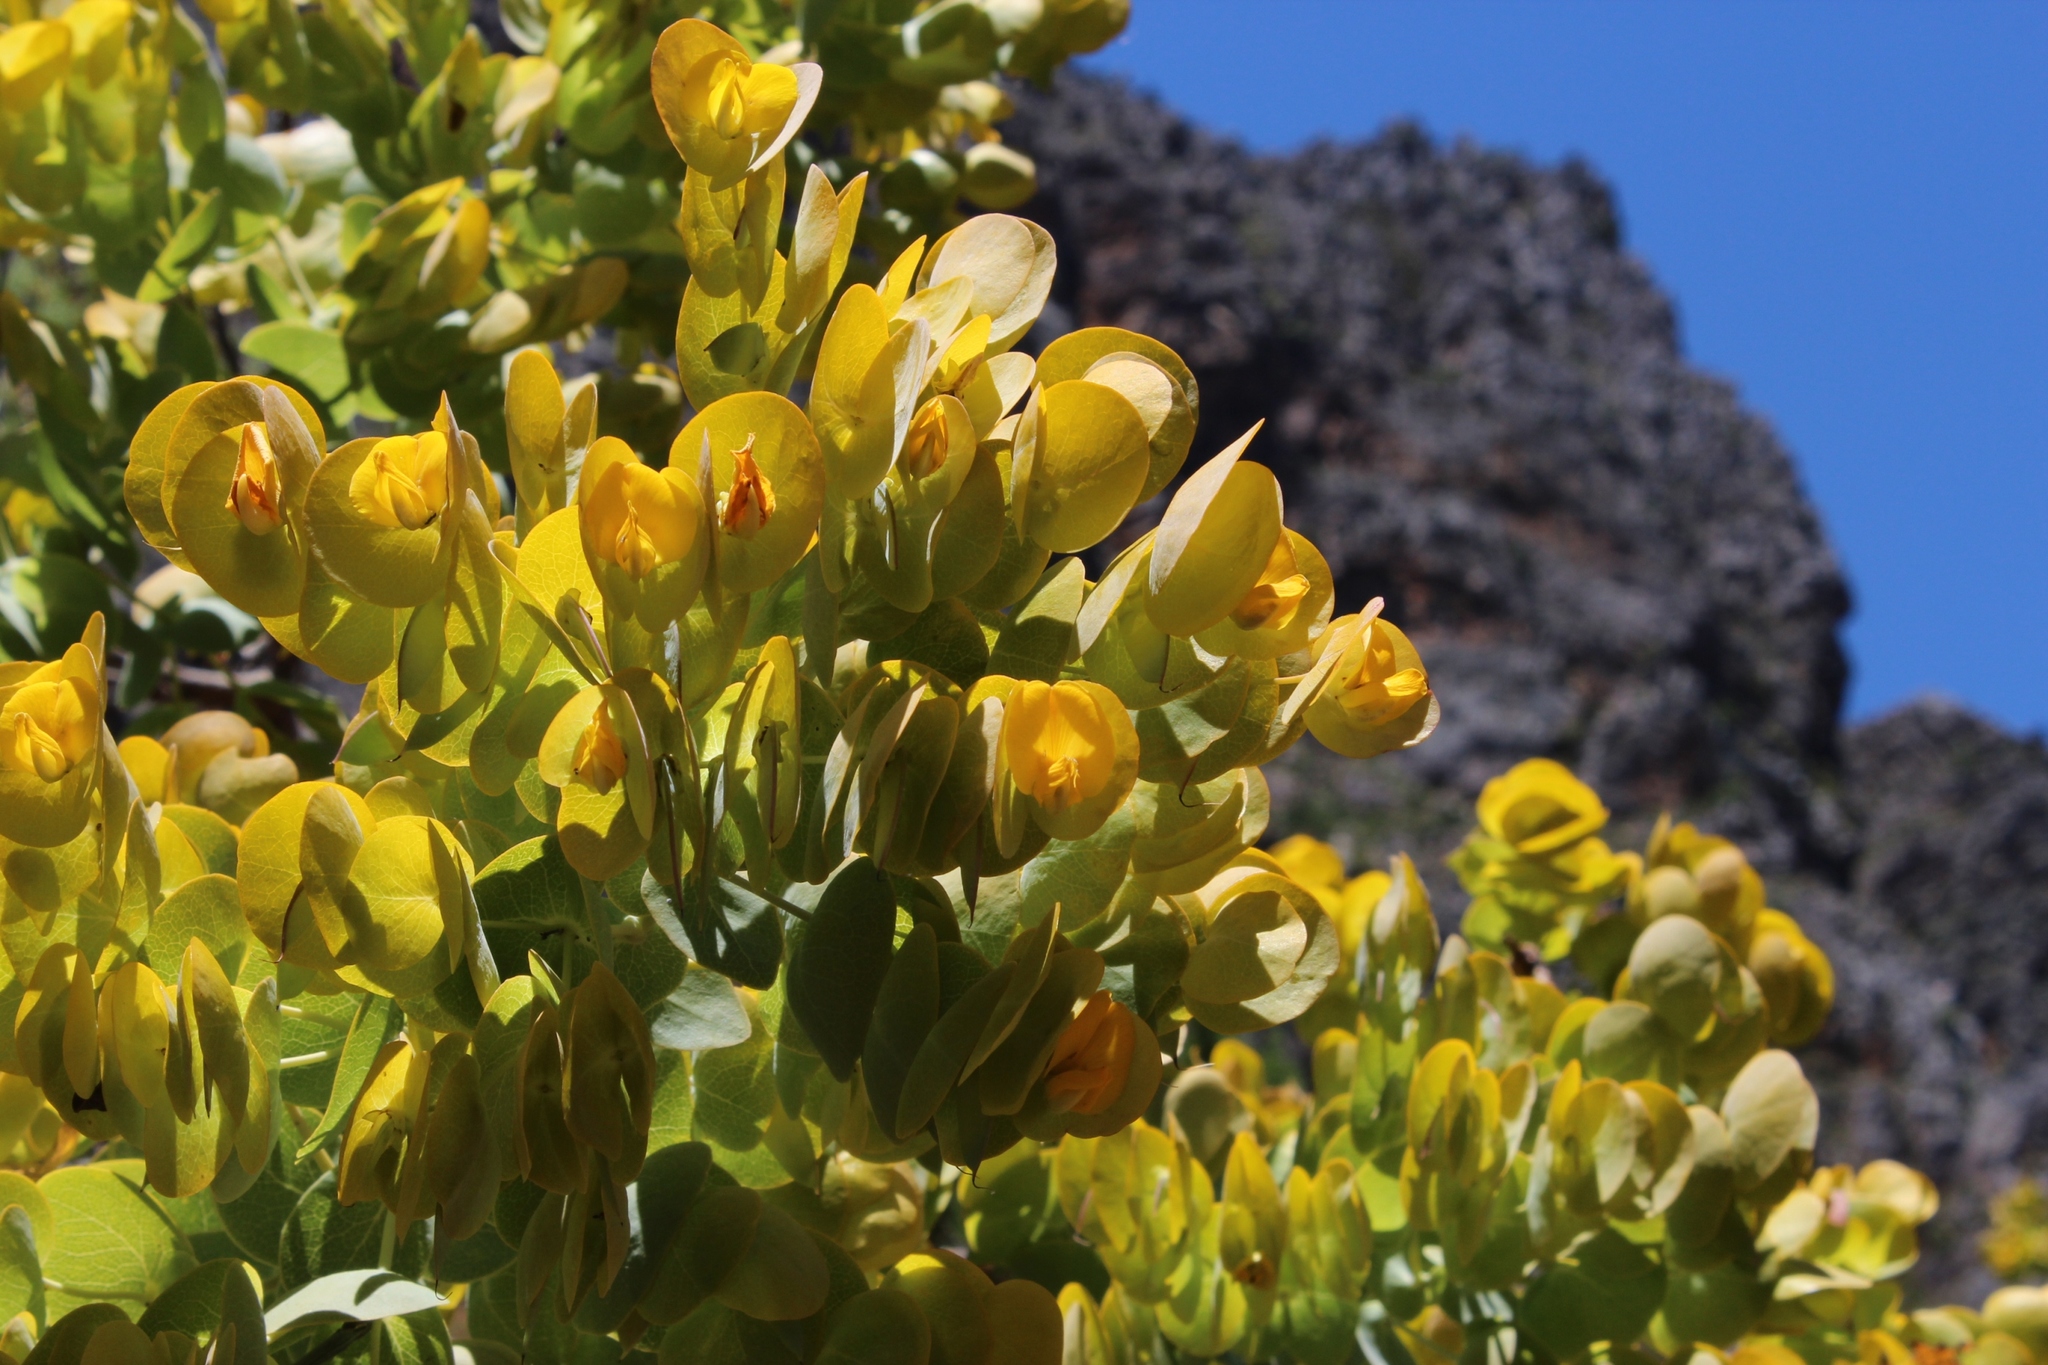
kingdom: Plantae
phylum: Tracheophyta
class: Magnoliopsida
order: Fabales
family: Fabaceae
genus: Rafnia
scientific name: Rafnia amplexicaulis
